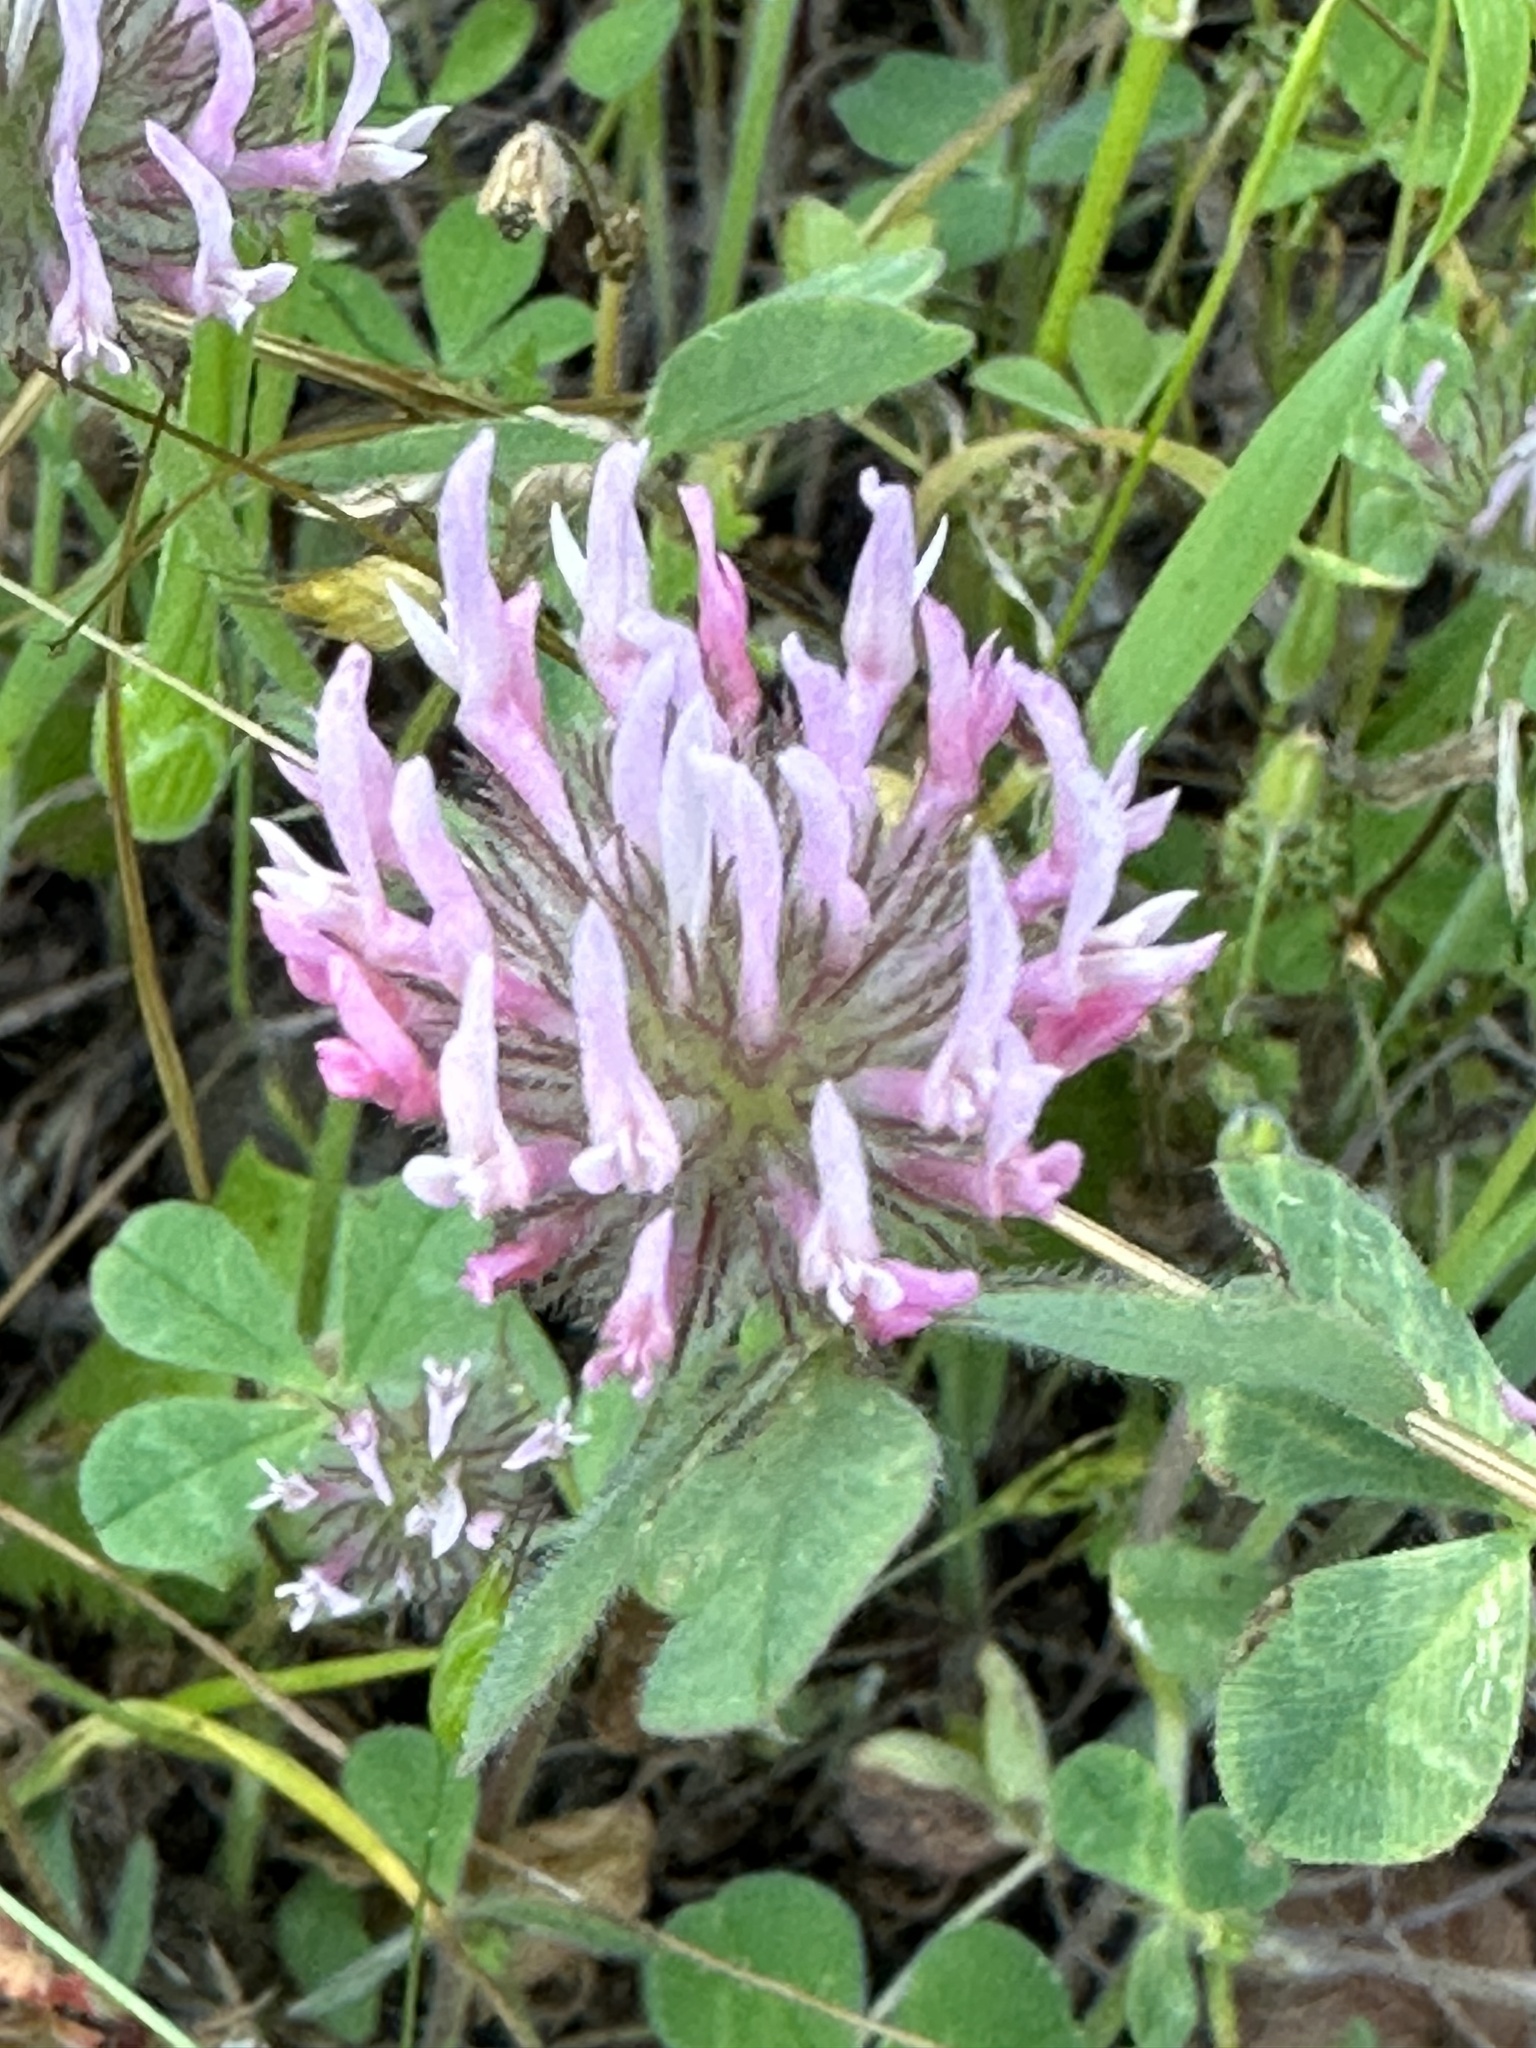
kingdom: Plantae
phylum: Tracheophyta
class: Magnoliopsida
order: Fabales
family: Fabaceae
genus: Trifolium
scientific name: Trifolium hirtum
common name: Rose clover
